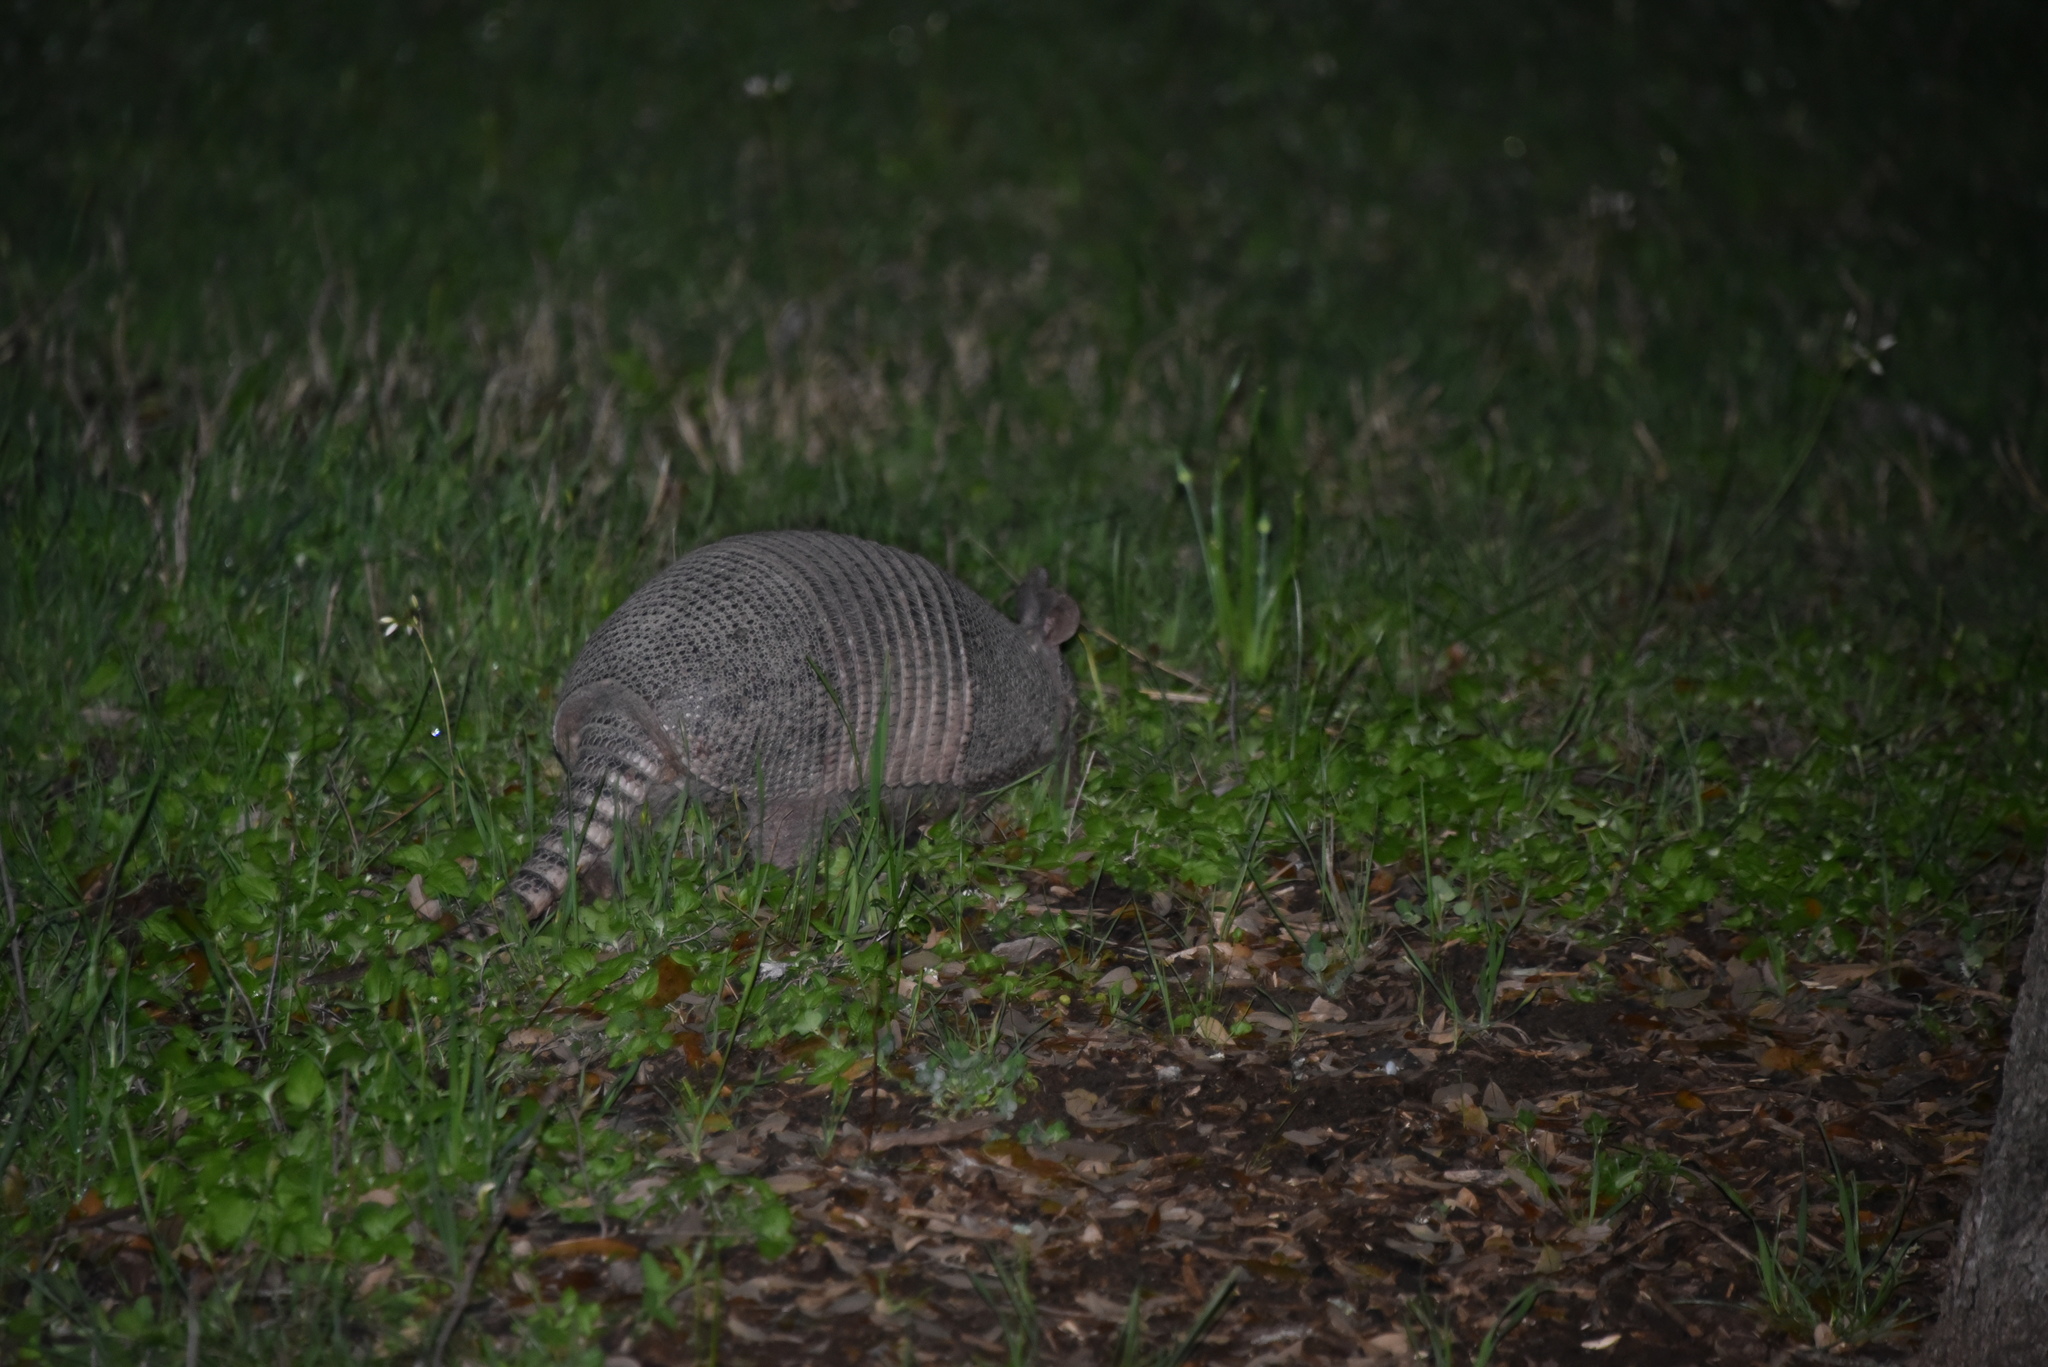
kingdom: Animalia
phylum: Chordata
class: Mammalia
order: Cingulata
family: Dasypodidae
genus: Dasypus
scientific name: Dasypus novemcinctus
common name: Nine-banded armadillo
